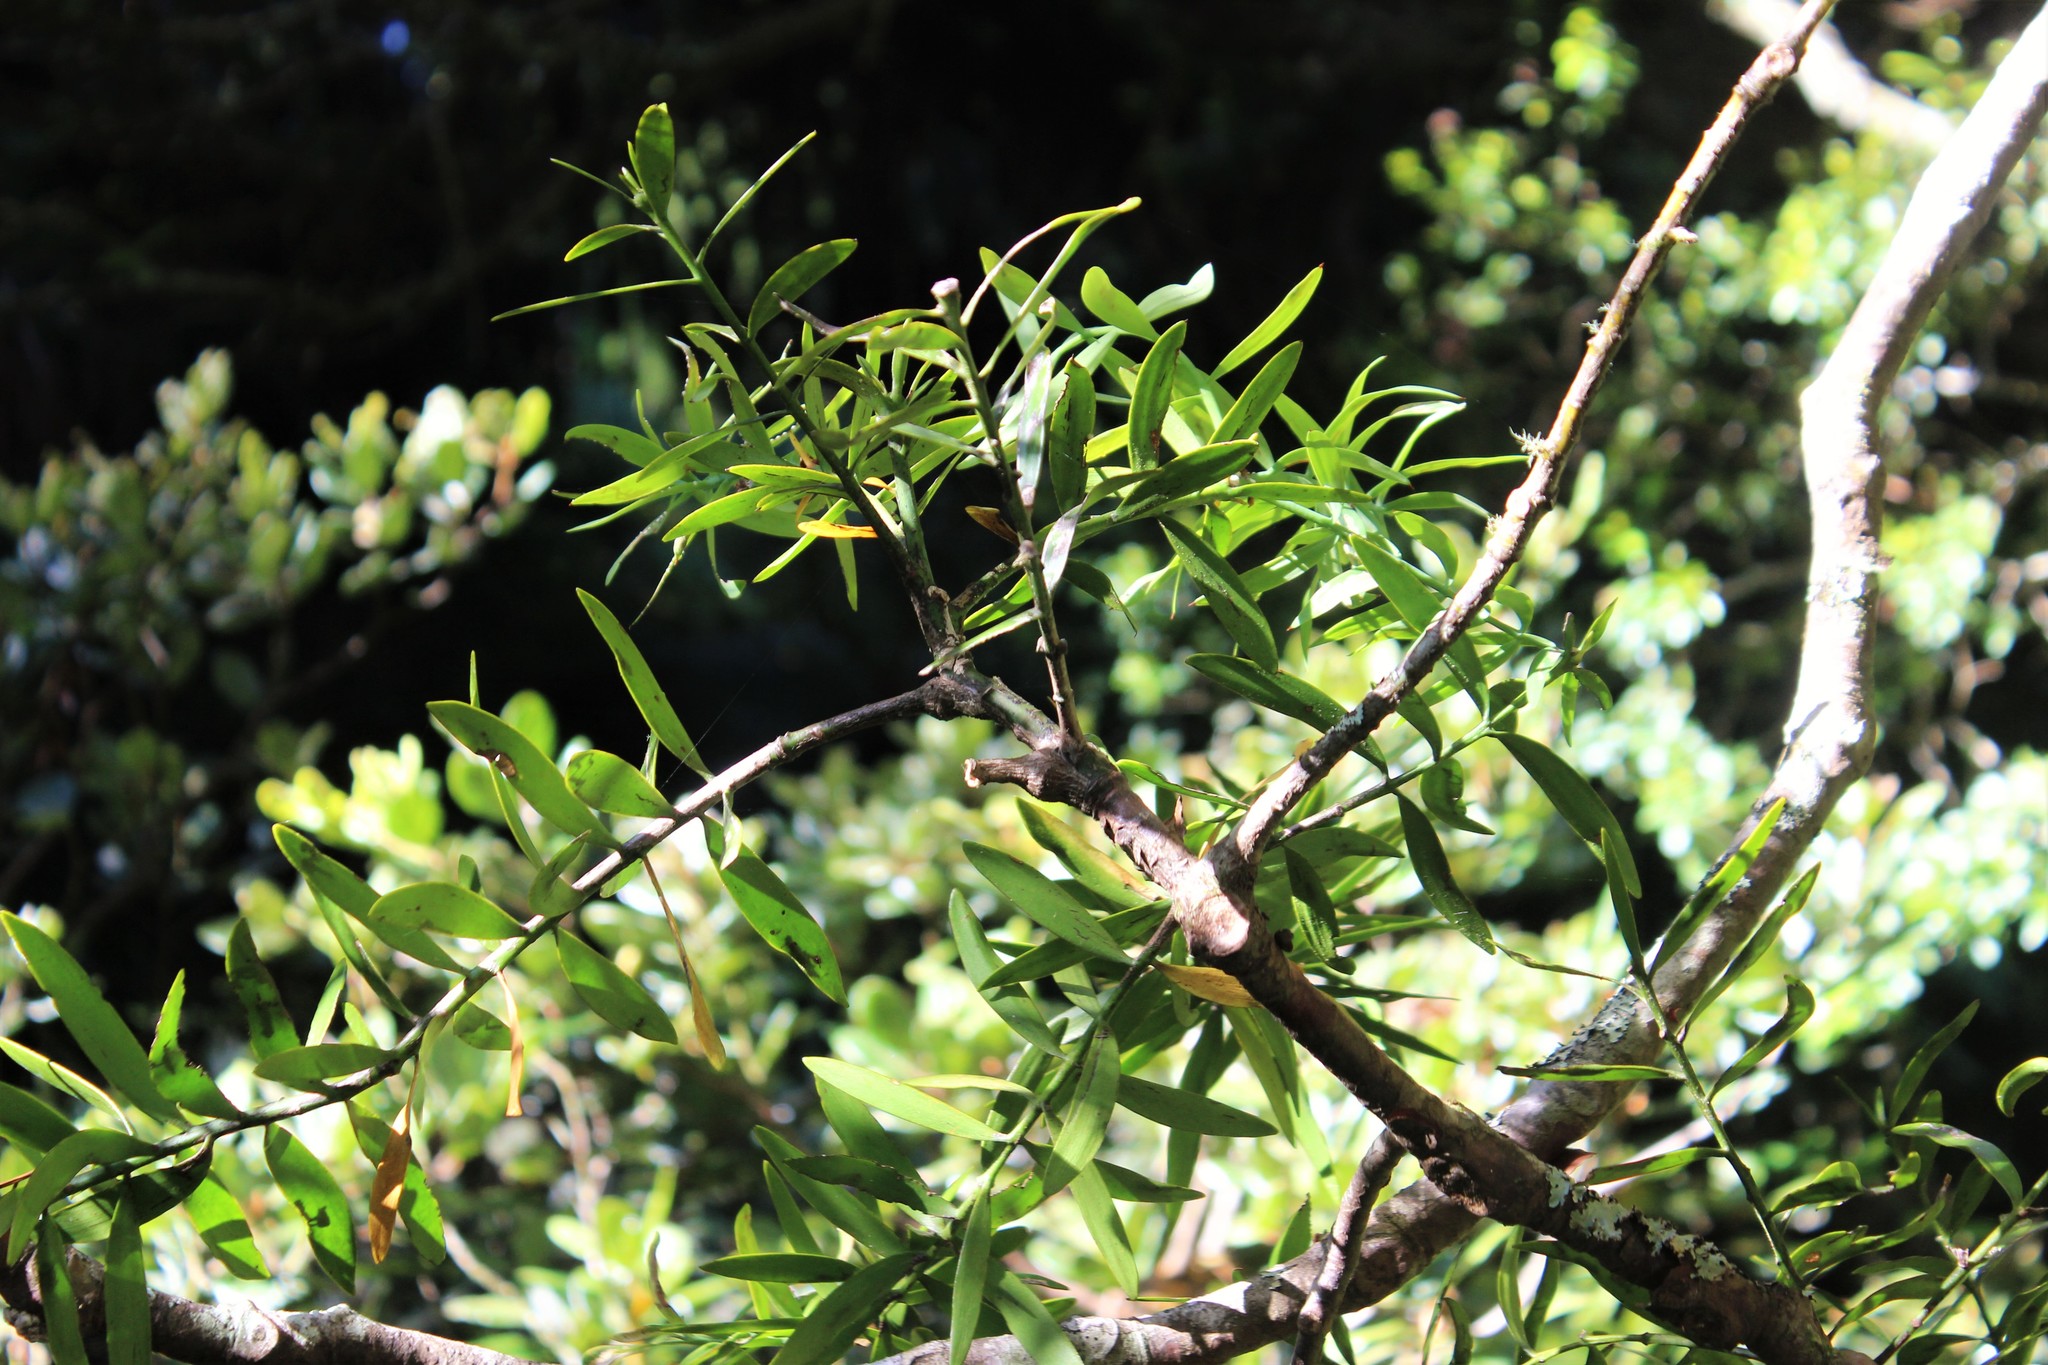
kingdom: Plantae
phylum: Tracheophyta
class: Pinopsida
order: Pinales
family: Araucariaceae
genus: Agathis
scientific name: Agathis australis
